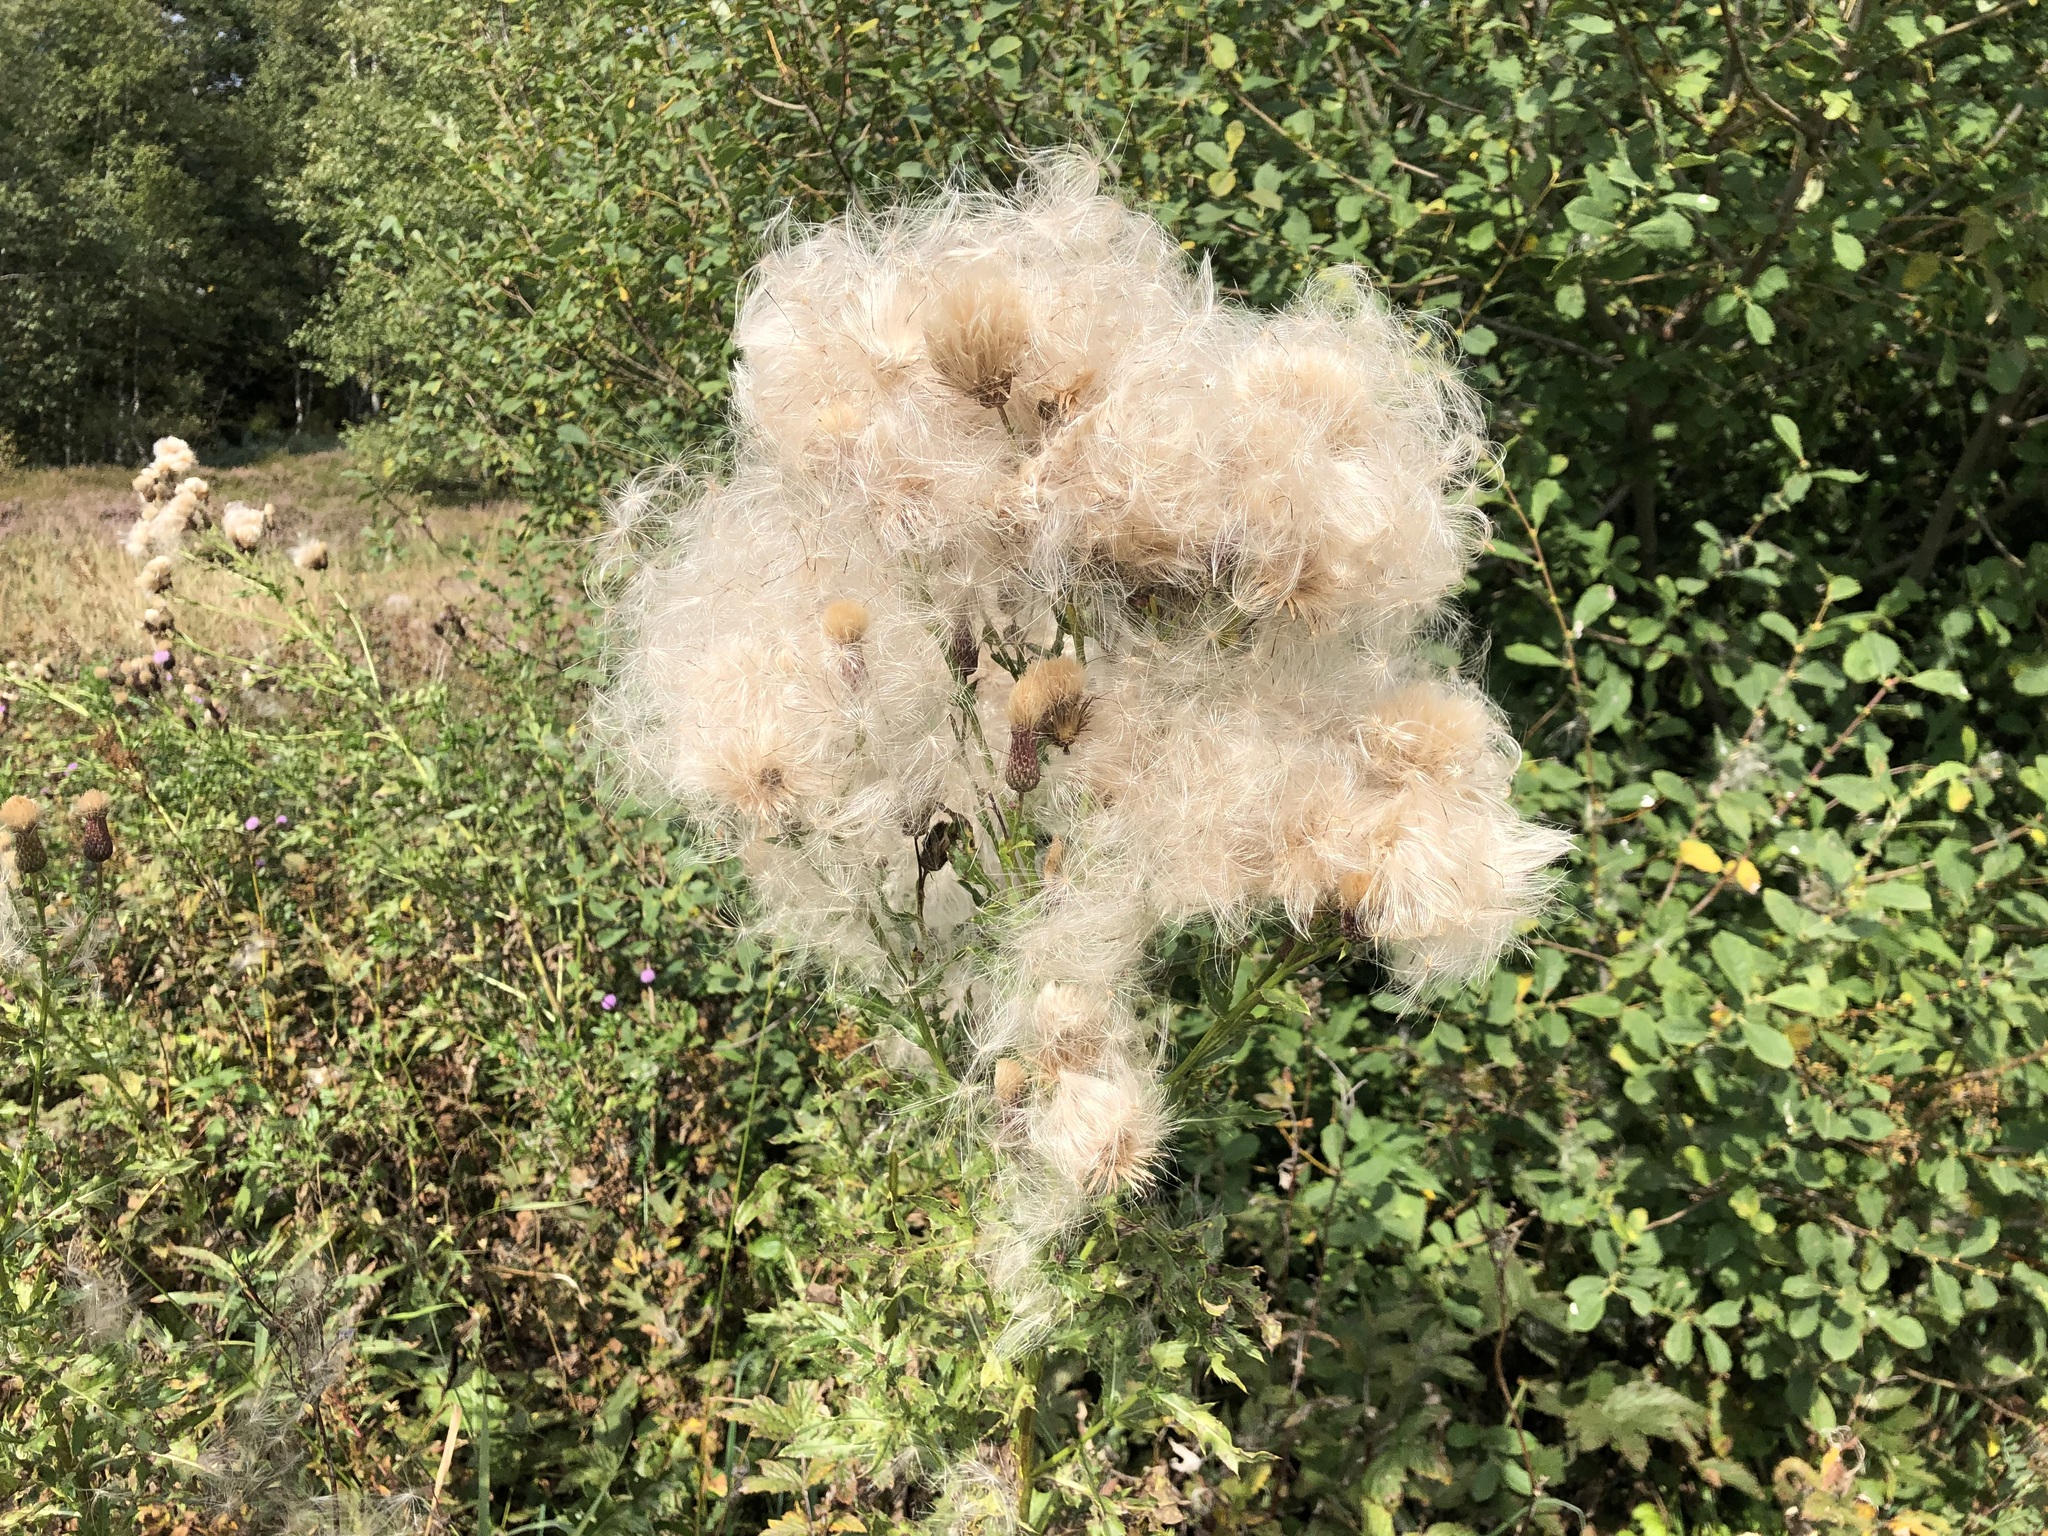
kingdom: Plantae
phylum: Tracheophyta
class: Magnoliopsida
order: Asterales
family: Asteraceae
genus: Cirsium
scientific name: Cirsium arvense
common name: Creeping thistle
